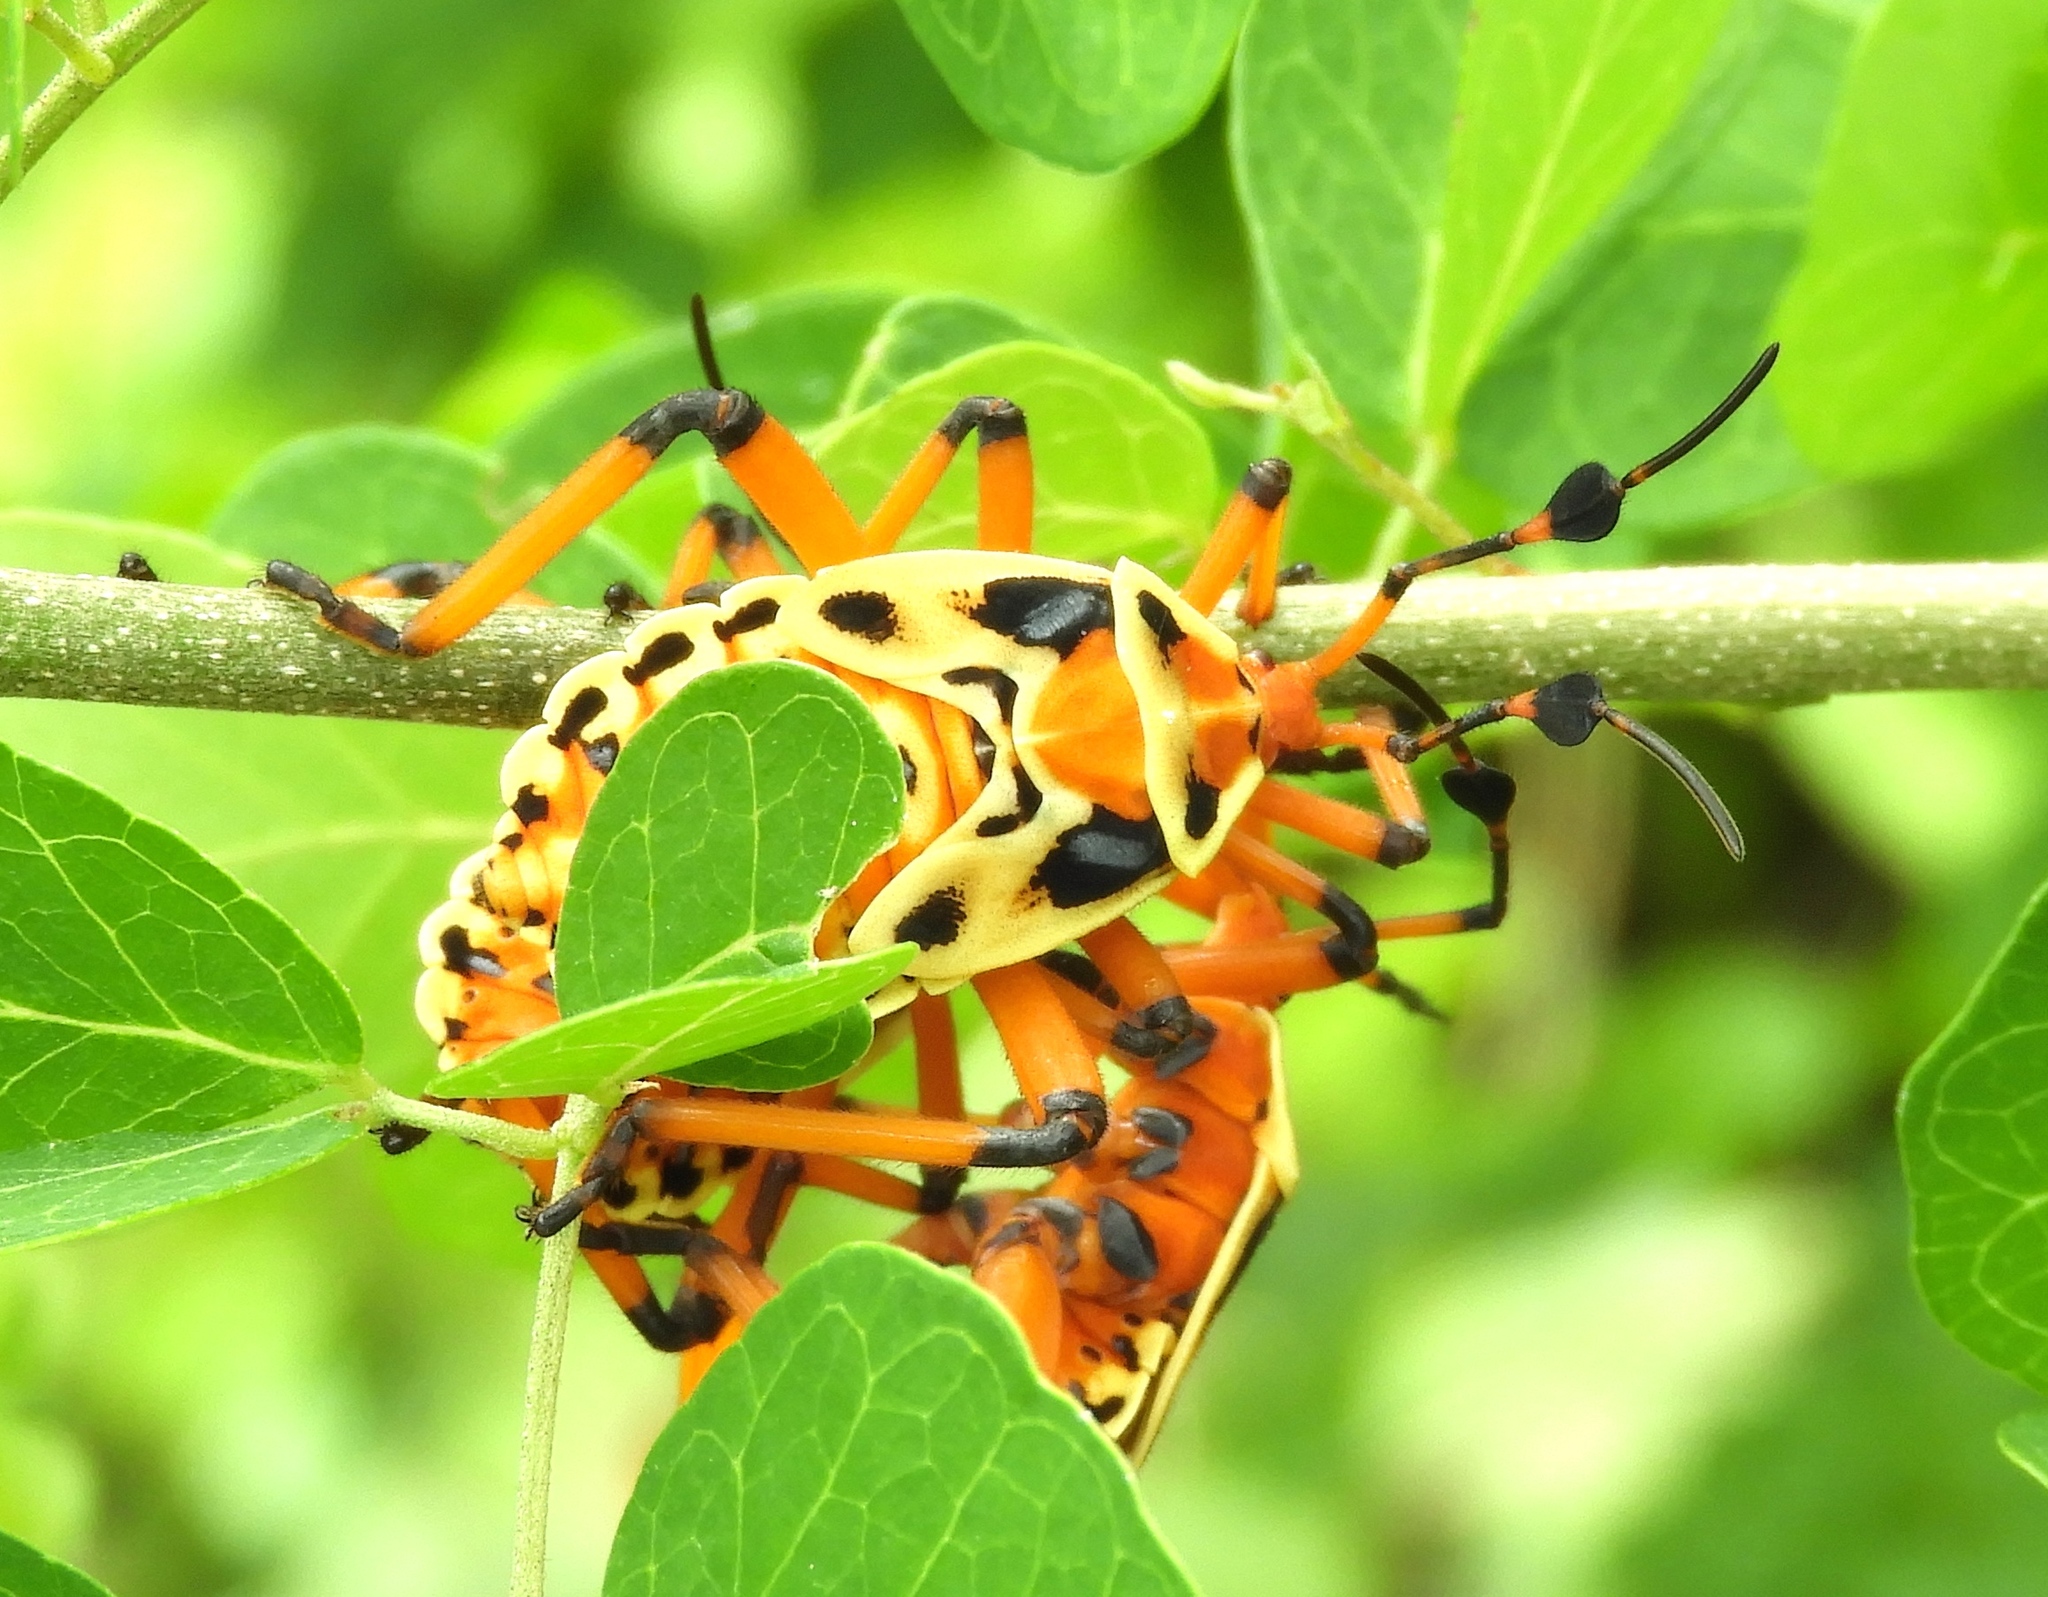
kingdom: Animalia
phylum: Arthropoda
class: Insecta
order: Hemiptera
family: Coreidae
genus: Pachylis
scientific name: Pachylis nervosus
